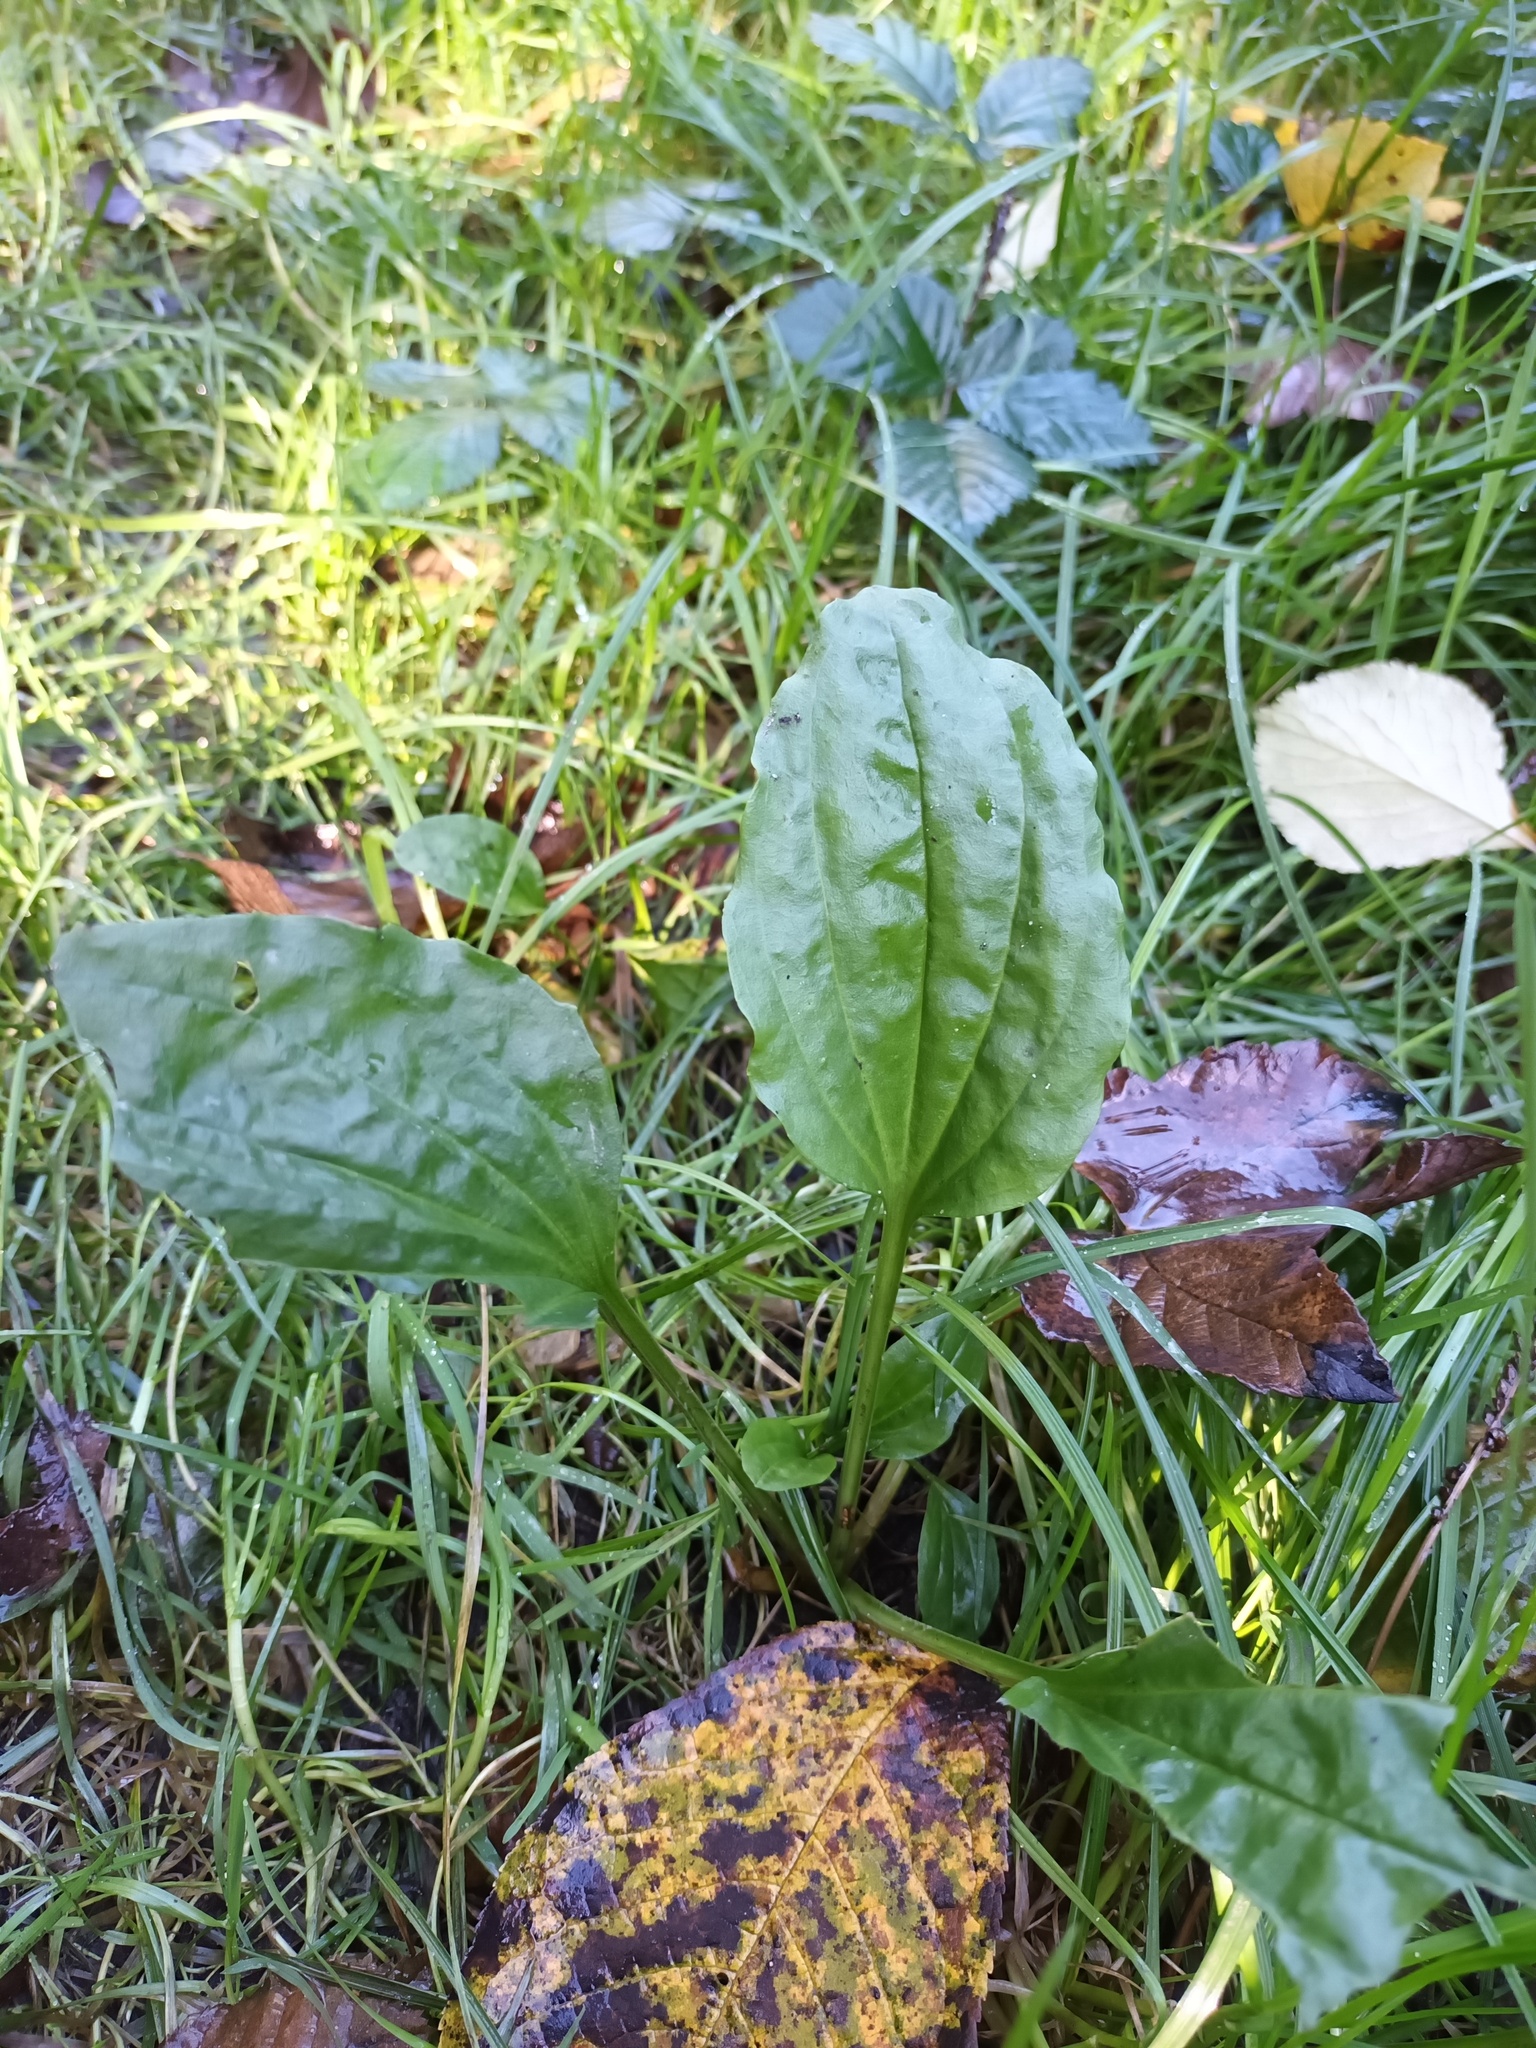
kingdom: Plantae
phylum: Tracheophyta
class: Magnoliopsida
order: Lamiales
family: Plantaginaceae
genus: Plantago
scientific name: Plantago major
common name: Common plantain
